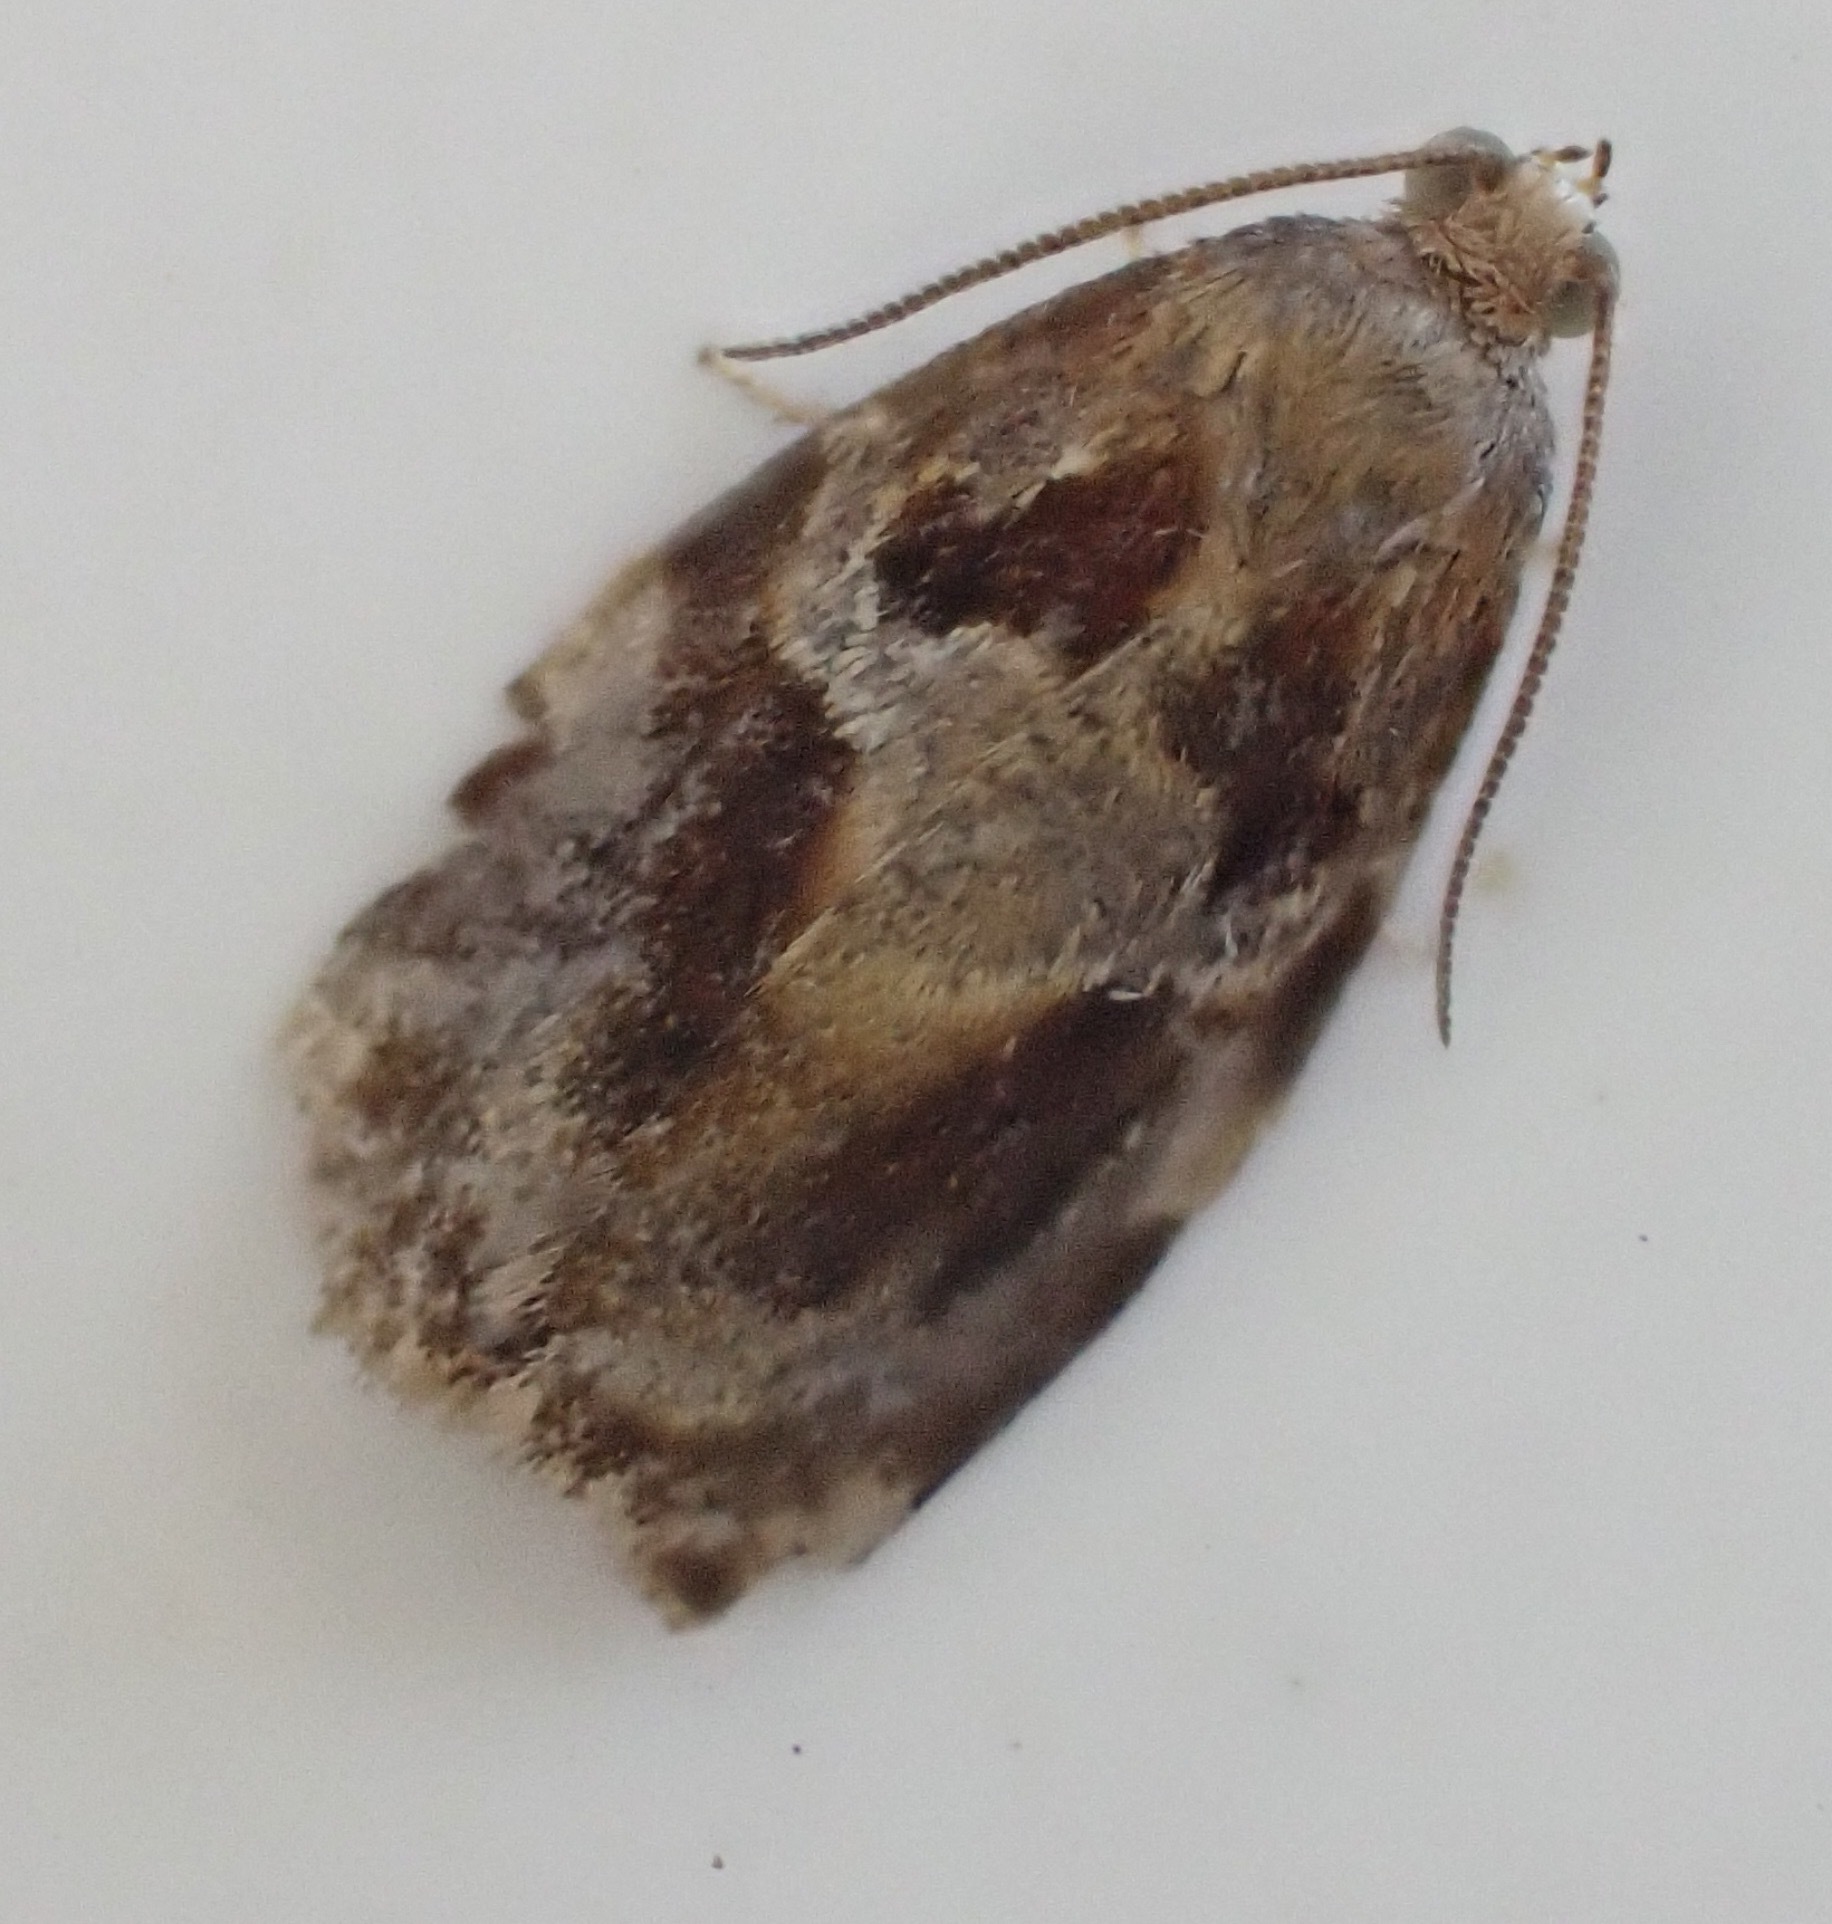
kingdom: Animalia
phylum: Arthropoda
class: Insecta
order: Lepidoptera
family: Tortricidae
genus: Archips
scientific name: Archips xylosteana
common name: Variegated golden tortrix
